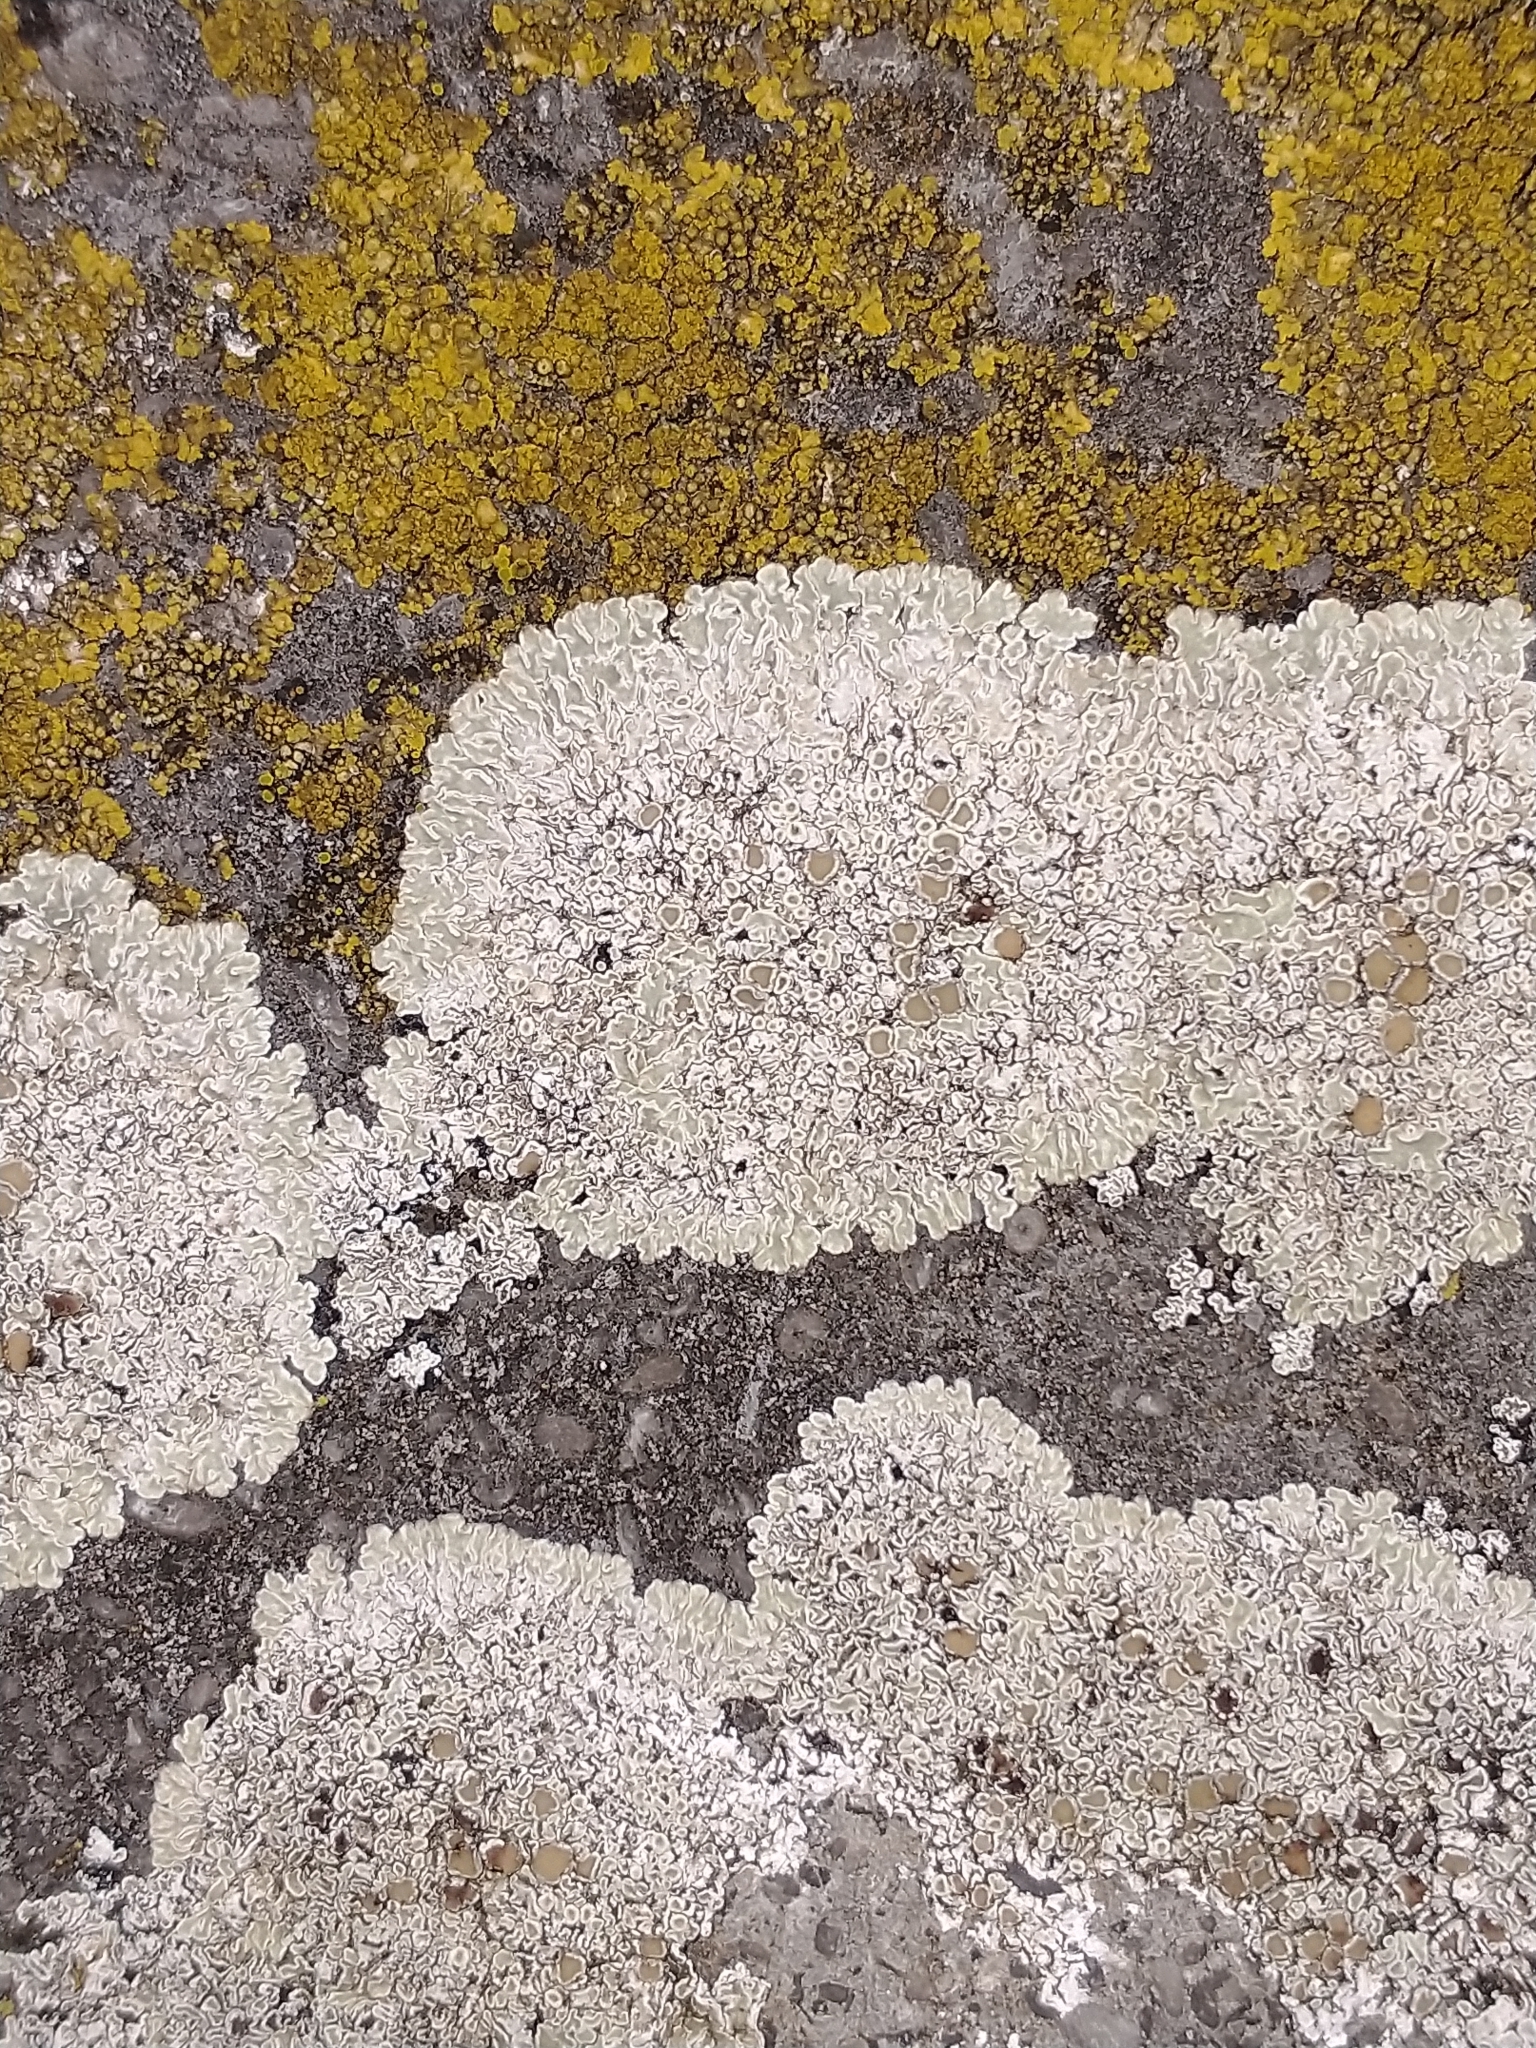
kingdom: Fungi
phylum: Ascomycota
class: Lecanoromycetes
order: Lecanorales
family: Lecanoraceae
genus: Protoparmeliopsis
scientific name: Protoparmeliopsis muralis
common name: Stonewall rim lichen
